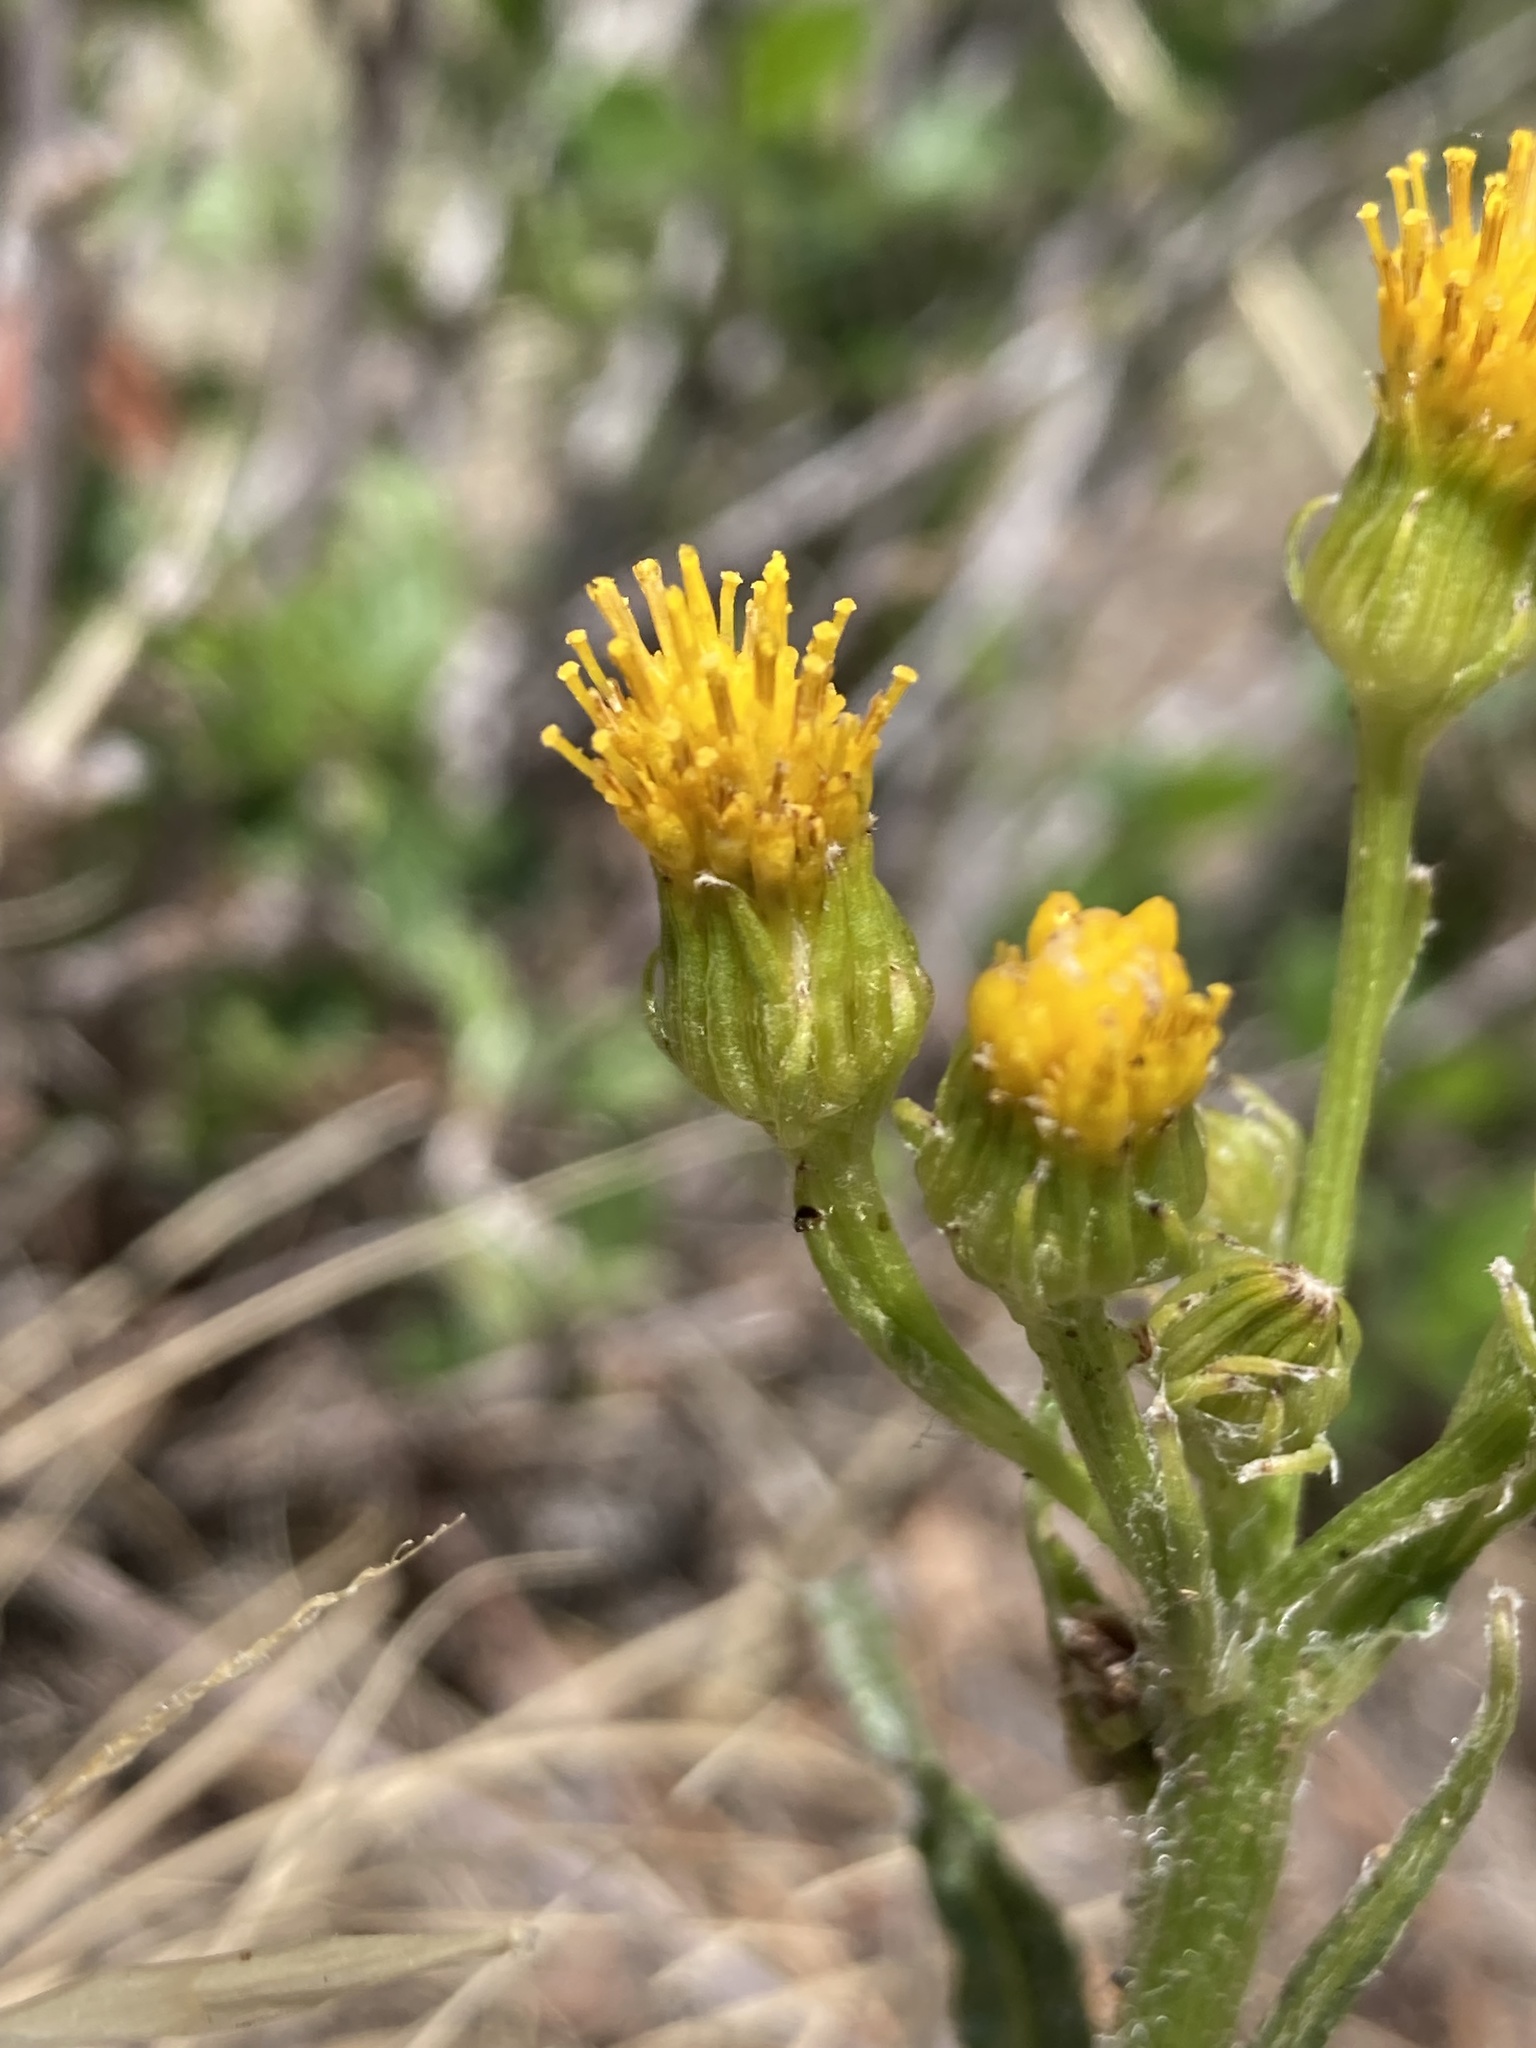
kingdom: Plantae
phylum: Tracheophyta
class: Magnoliopsida
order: Asterales
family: Asteraceae
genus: Senecio
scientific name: Senecio integerrimus
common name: Gaugeplant
